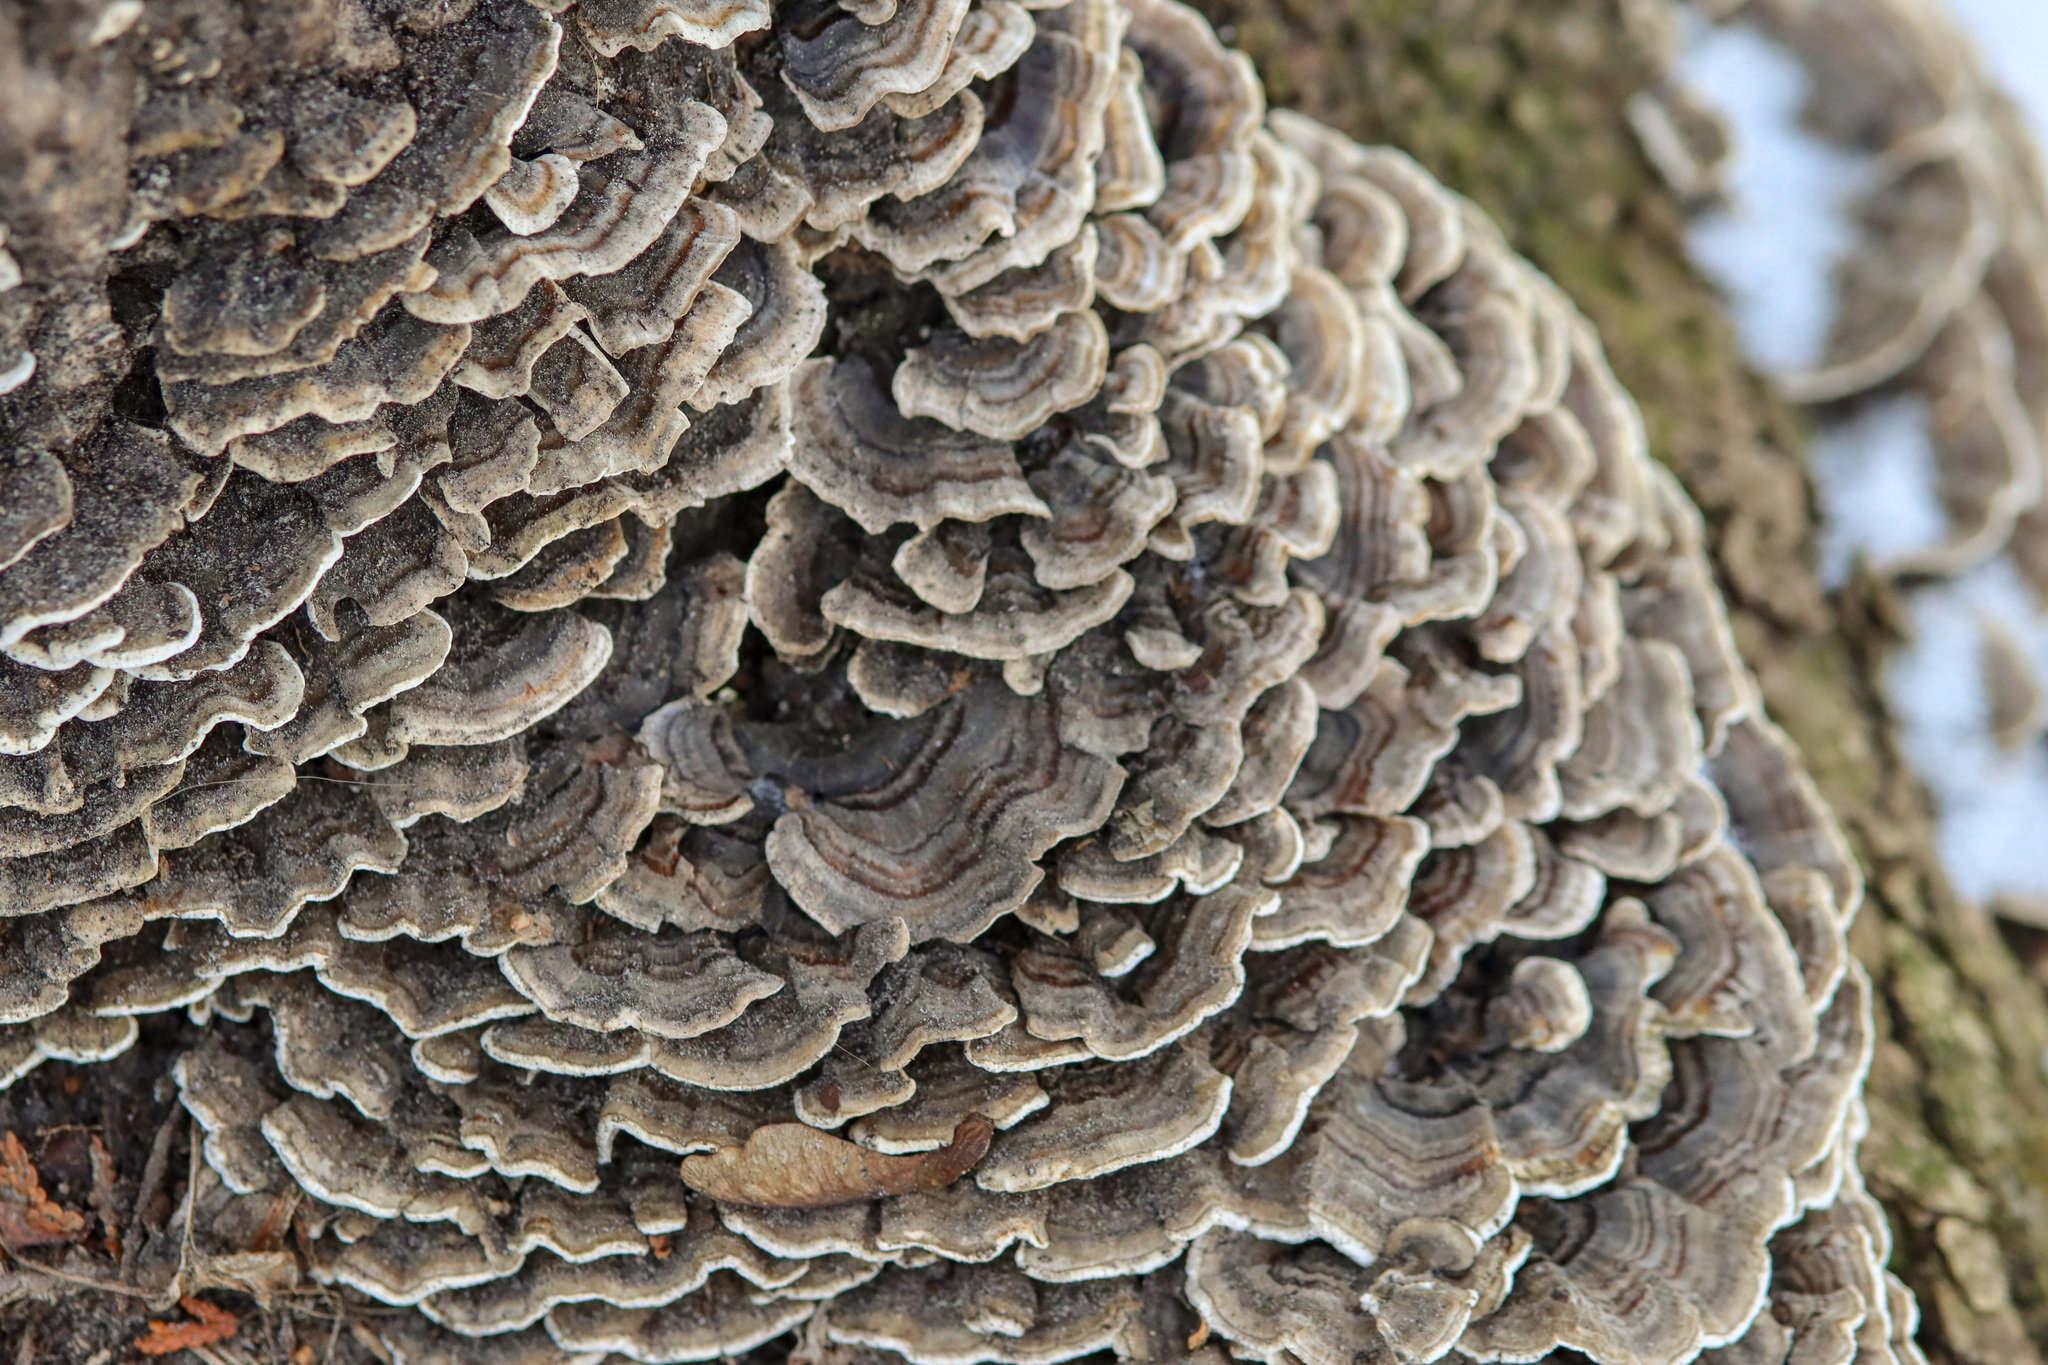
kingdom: Fungi
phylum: Basidiomycota
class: Agaricomycetes
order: Polyporales
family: Polyporaceae
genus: Trametes
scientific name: Trametes versicolor
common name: Turkeytail
